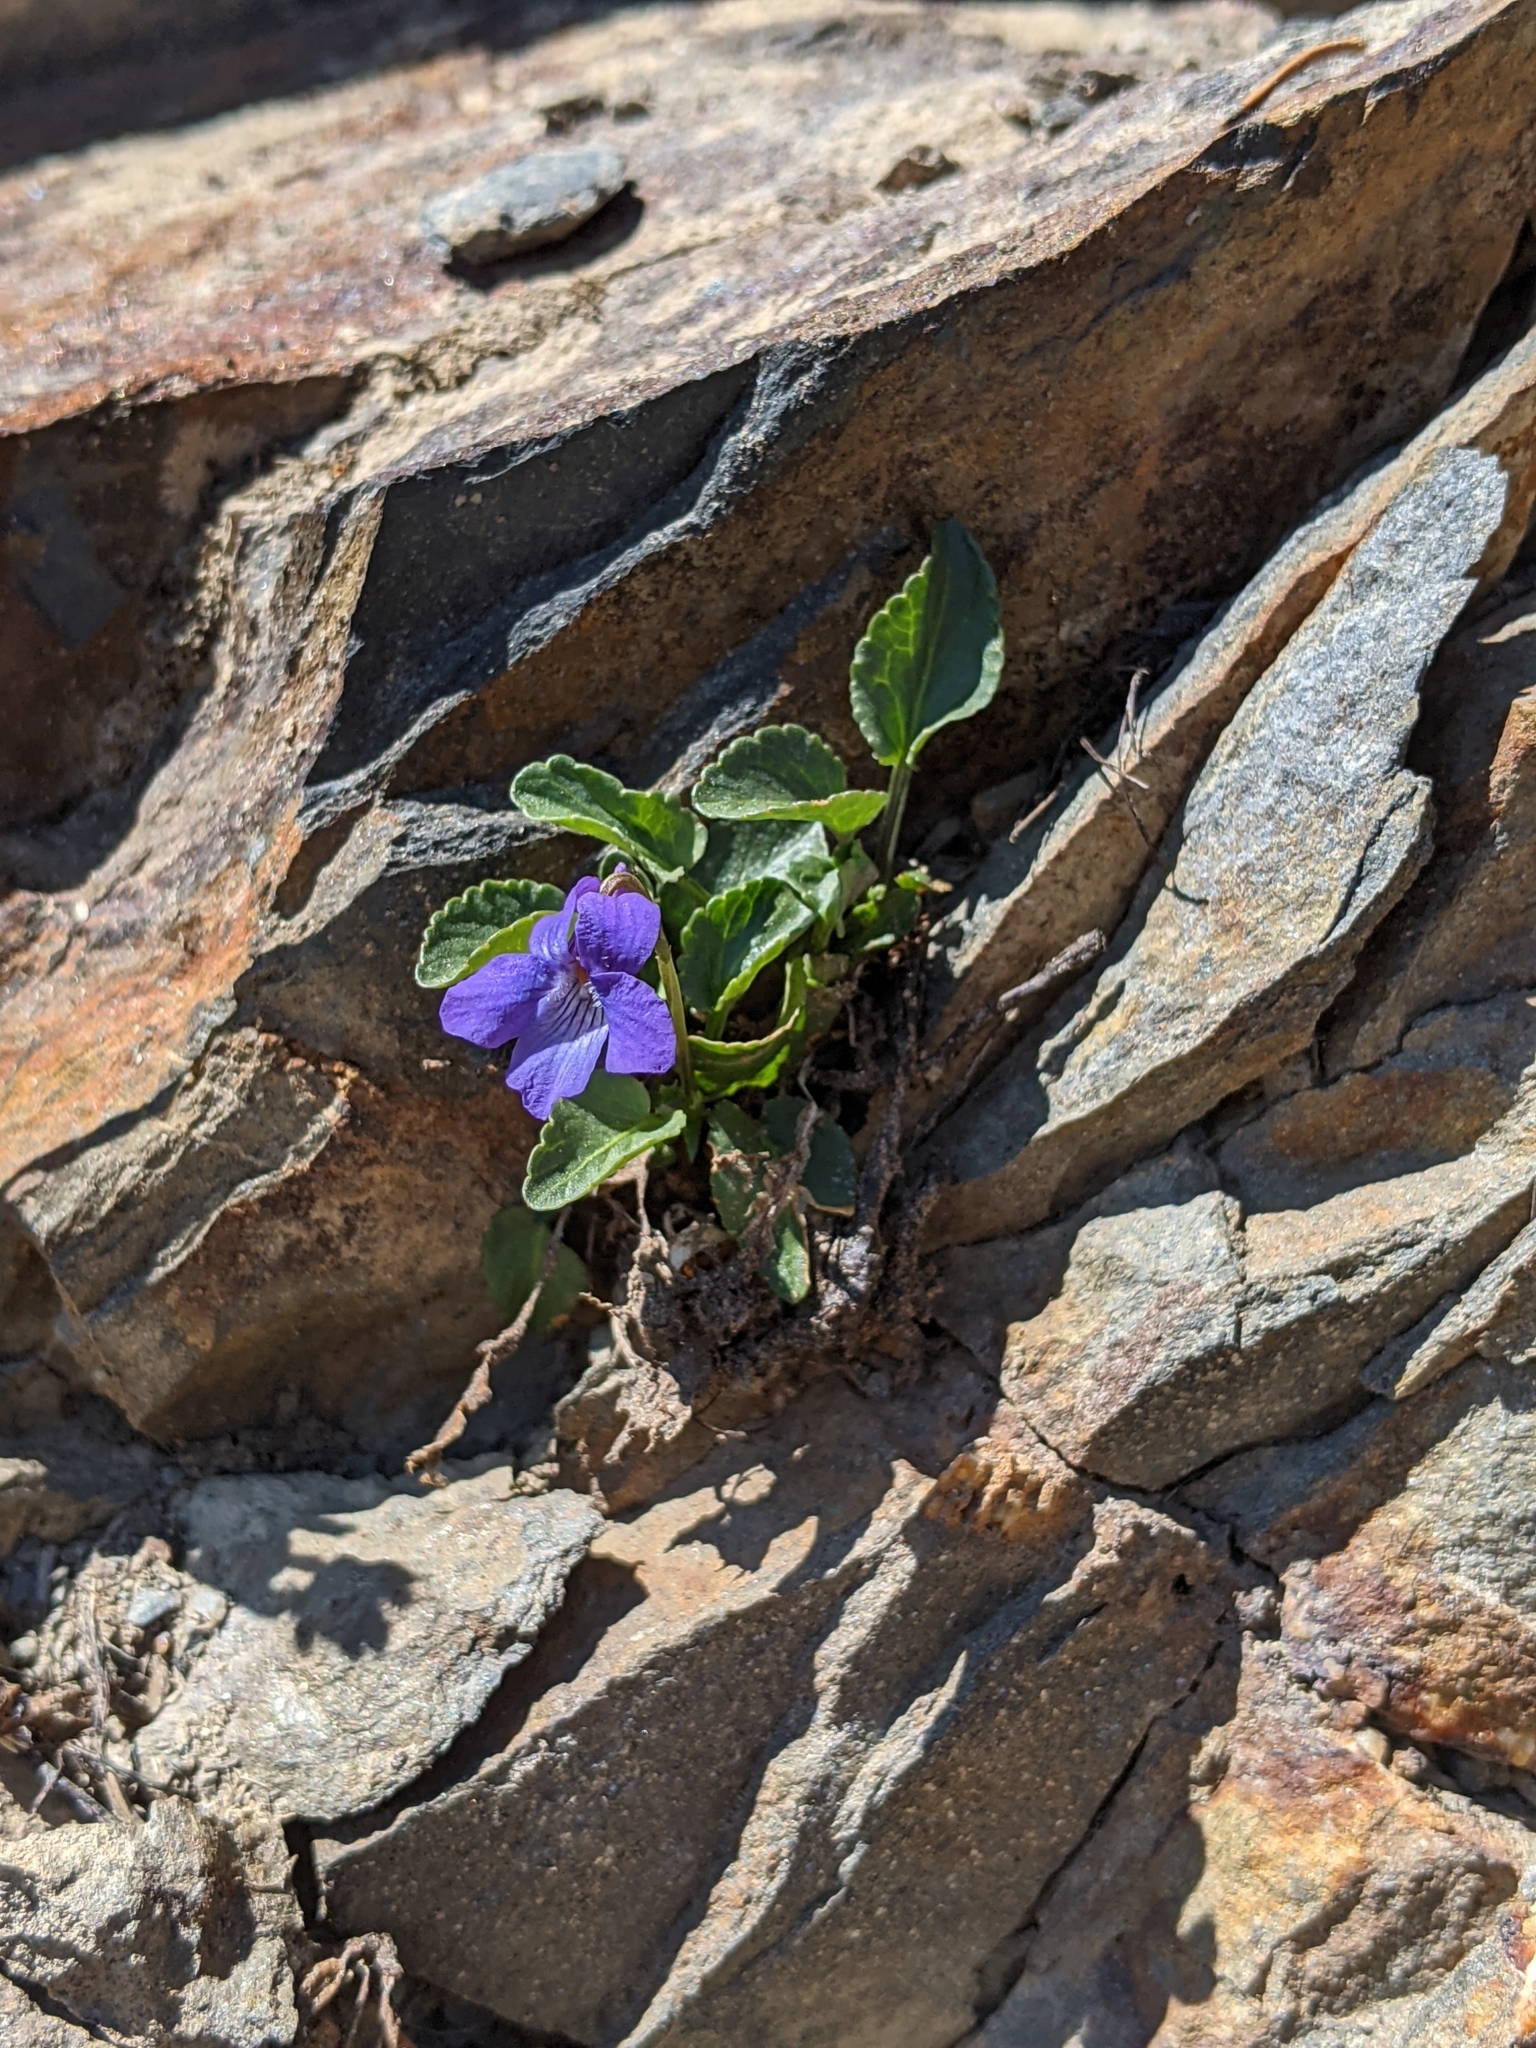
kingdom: Plantae
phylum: Tracheophyta
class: Magnoliopsida
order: Malpighiales
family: Violaceae
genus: Viola
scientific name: Viola adunca
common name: Sand violet
